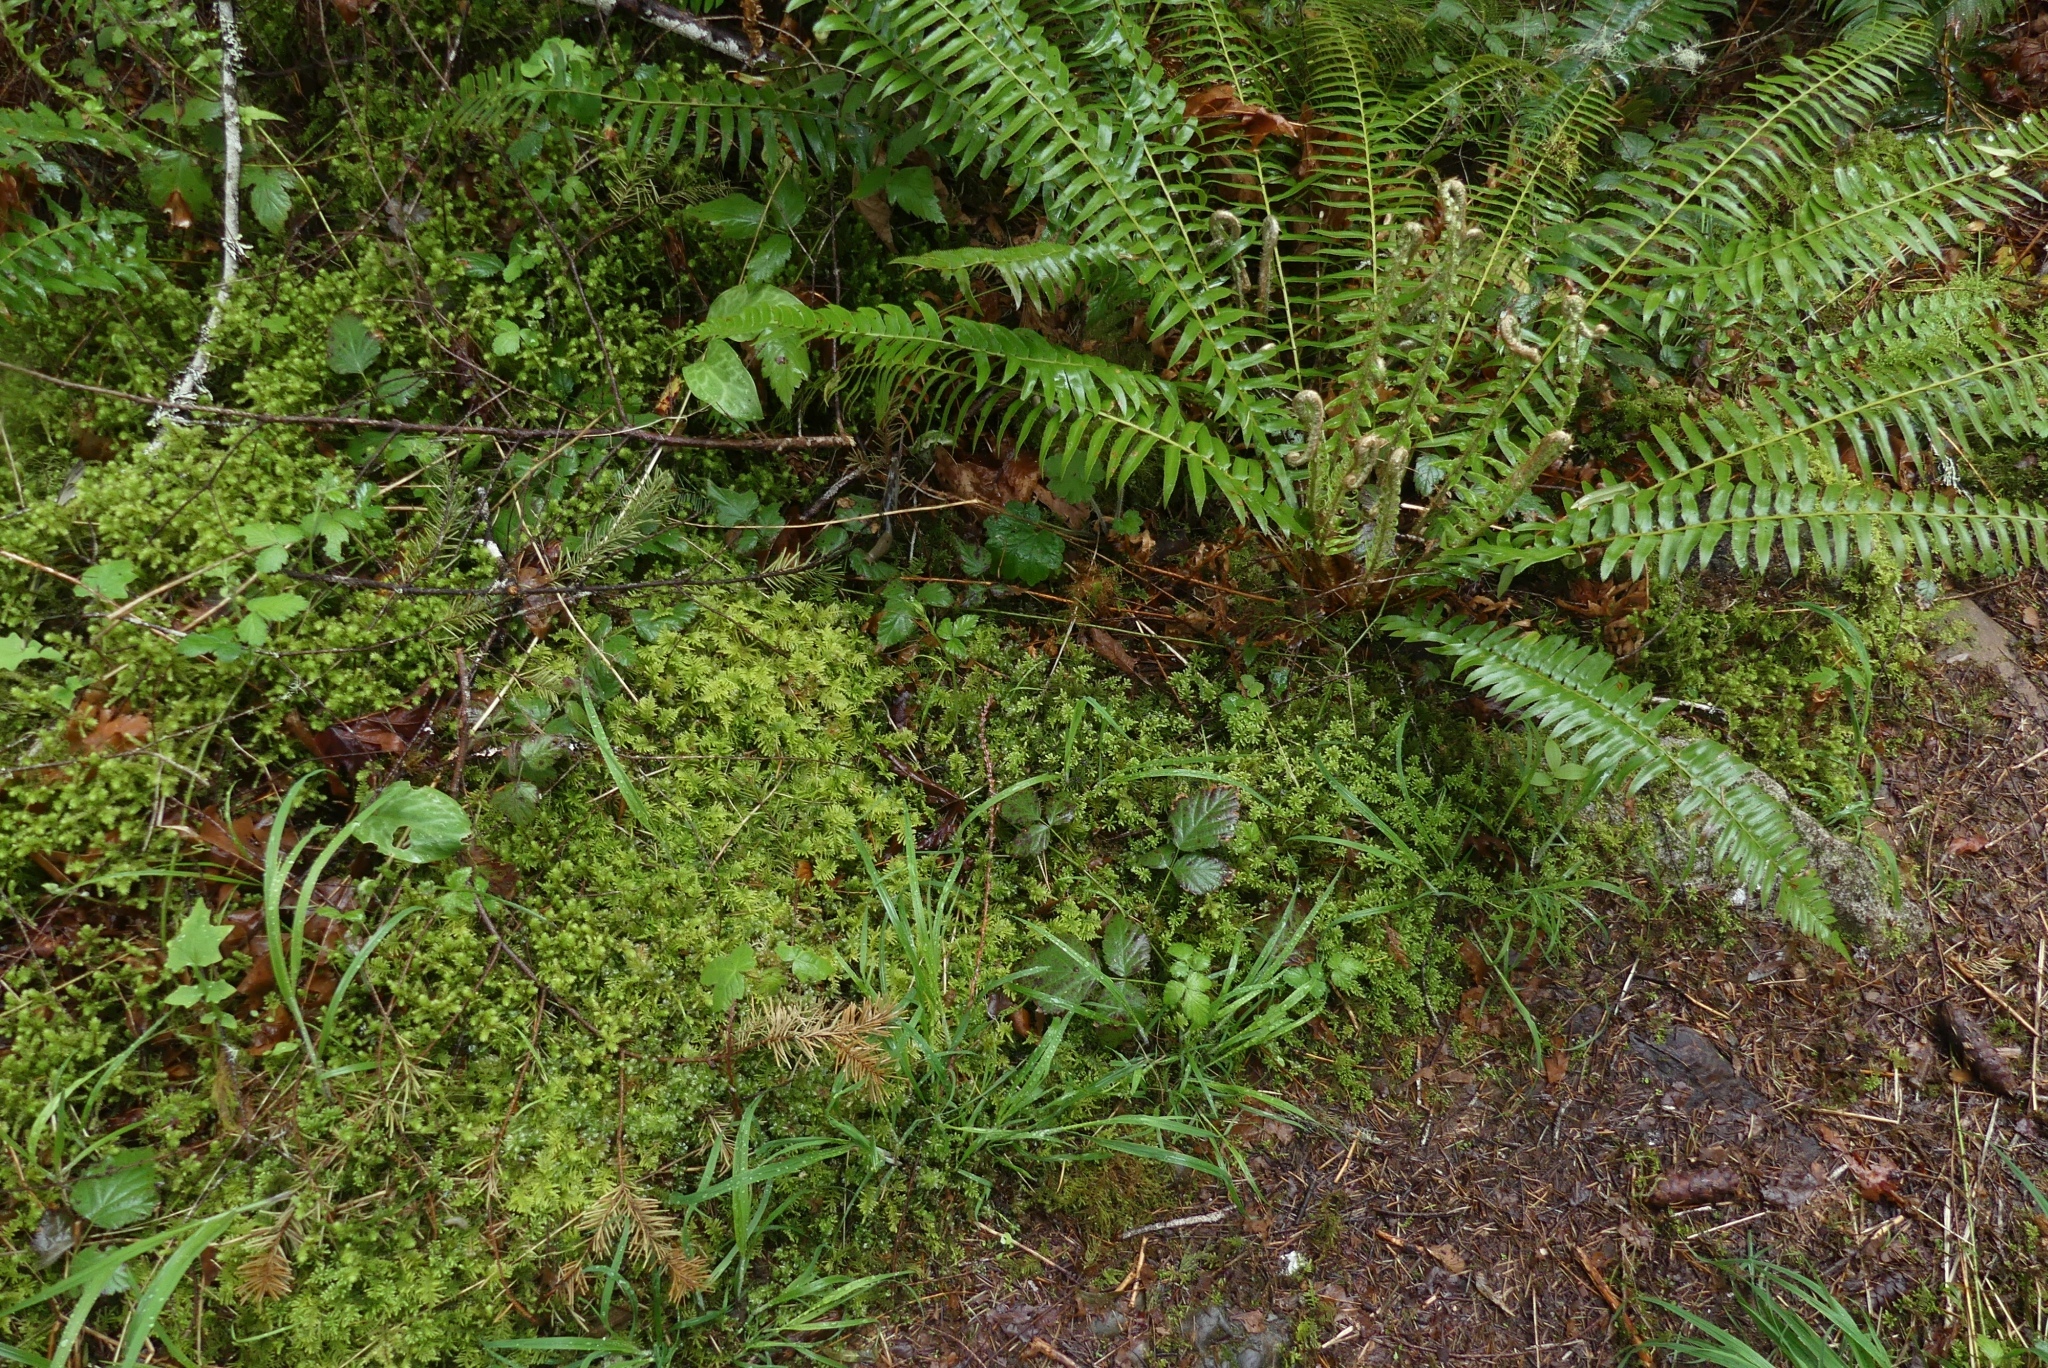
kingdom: Plantae
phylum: Tracheophyta
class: Magnoliopsida
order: Rosales
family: Rosaceae
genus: Rubus
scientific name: Rubus ursinus
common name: Pacific blackberry
